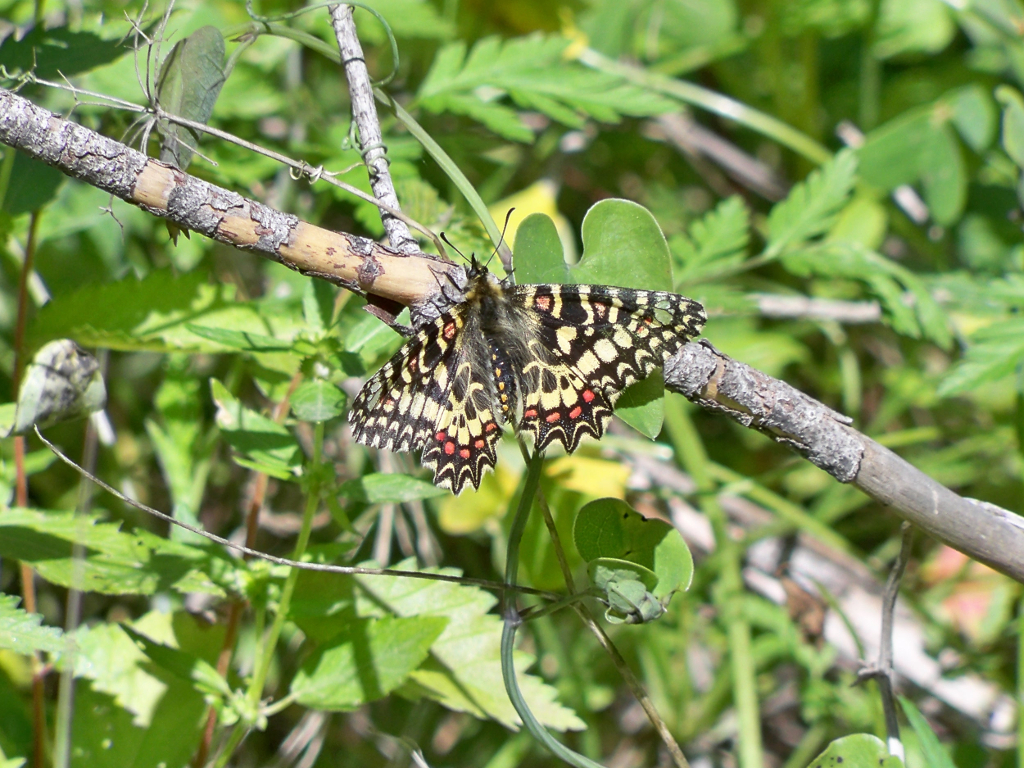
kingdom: Animalia
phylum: Arthropoda
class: Insecta
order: Lepidoptera
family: Papilionidae
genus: Zerynthia
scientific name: Zerynthia rumina
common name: Spanish festoon
